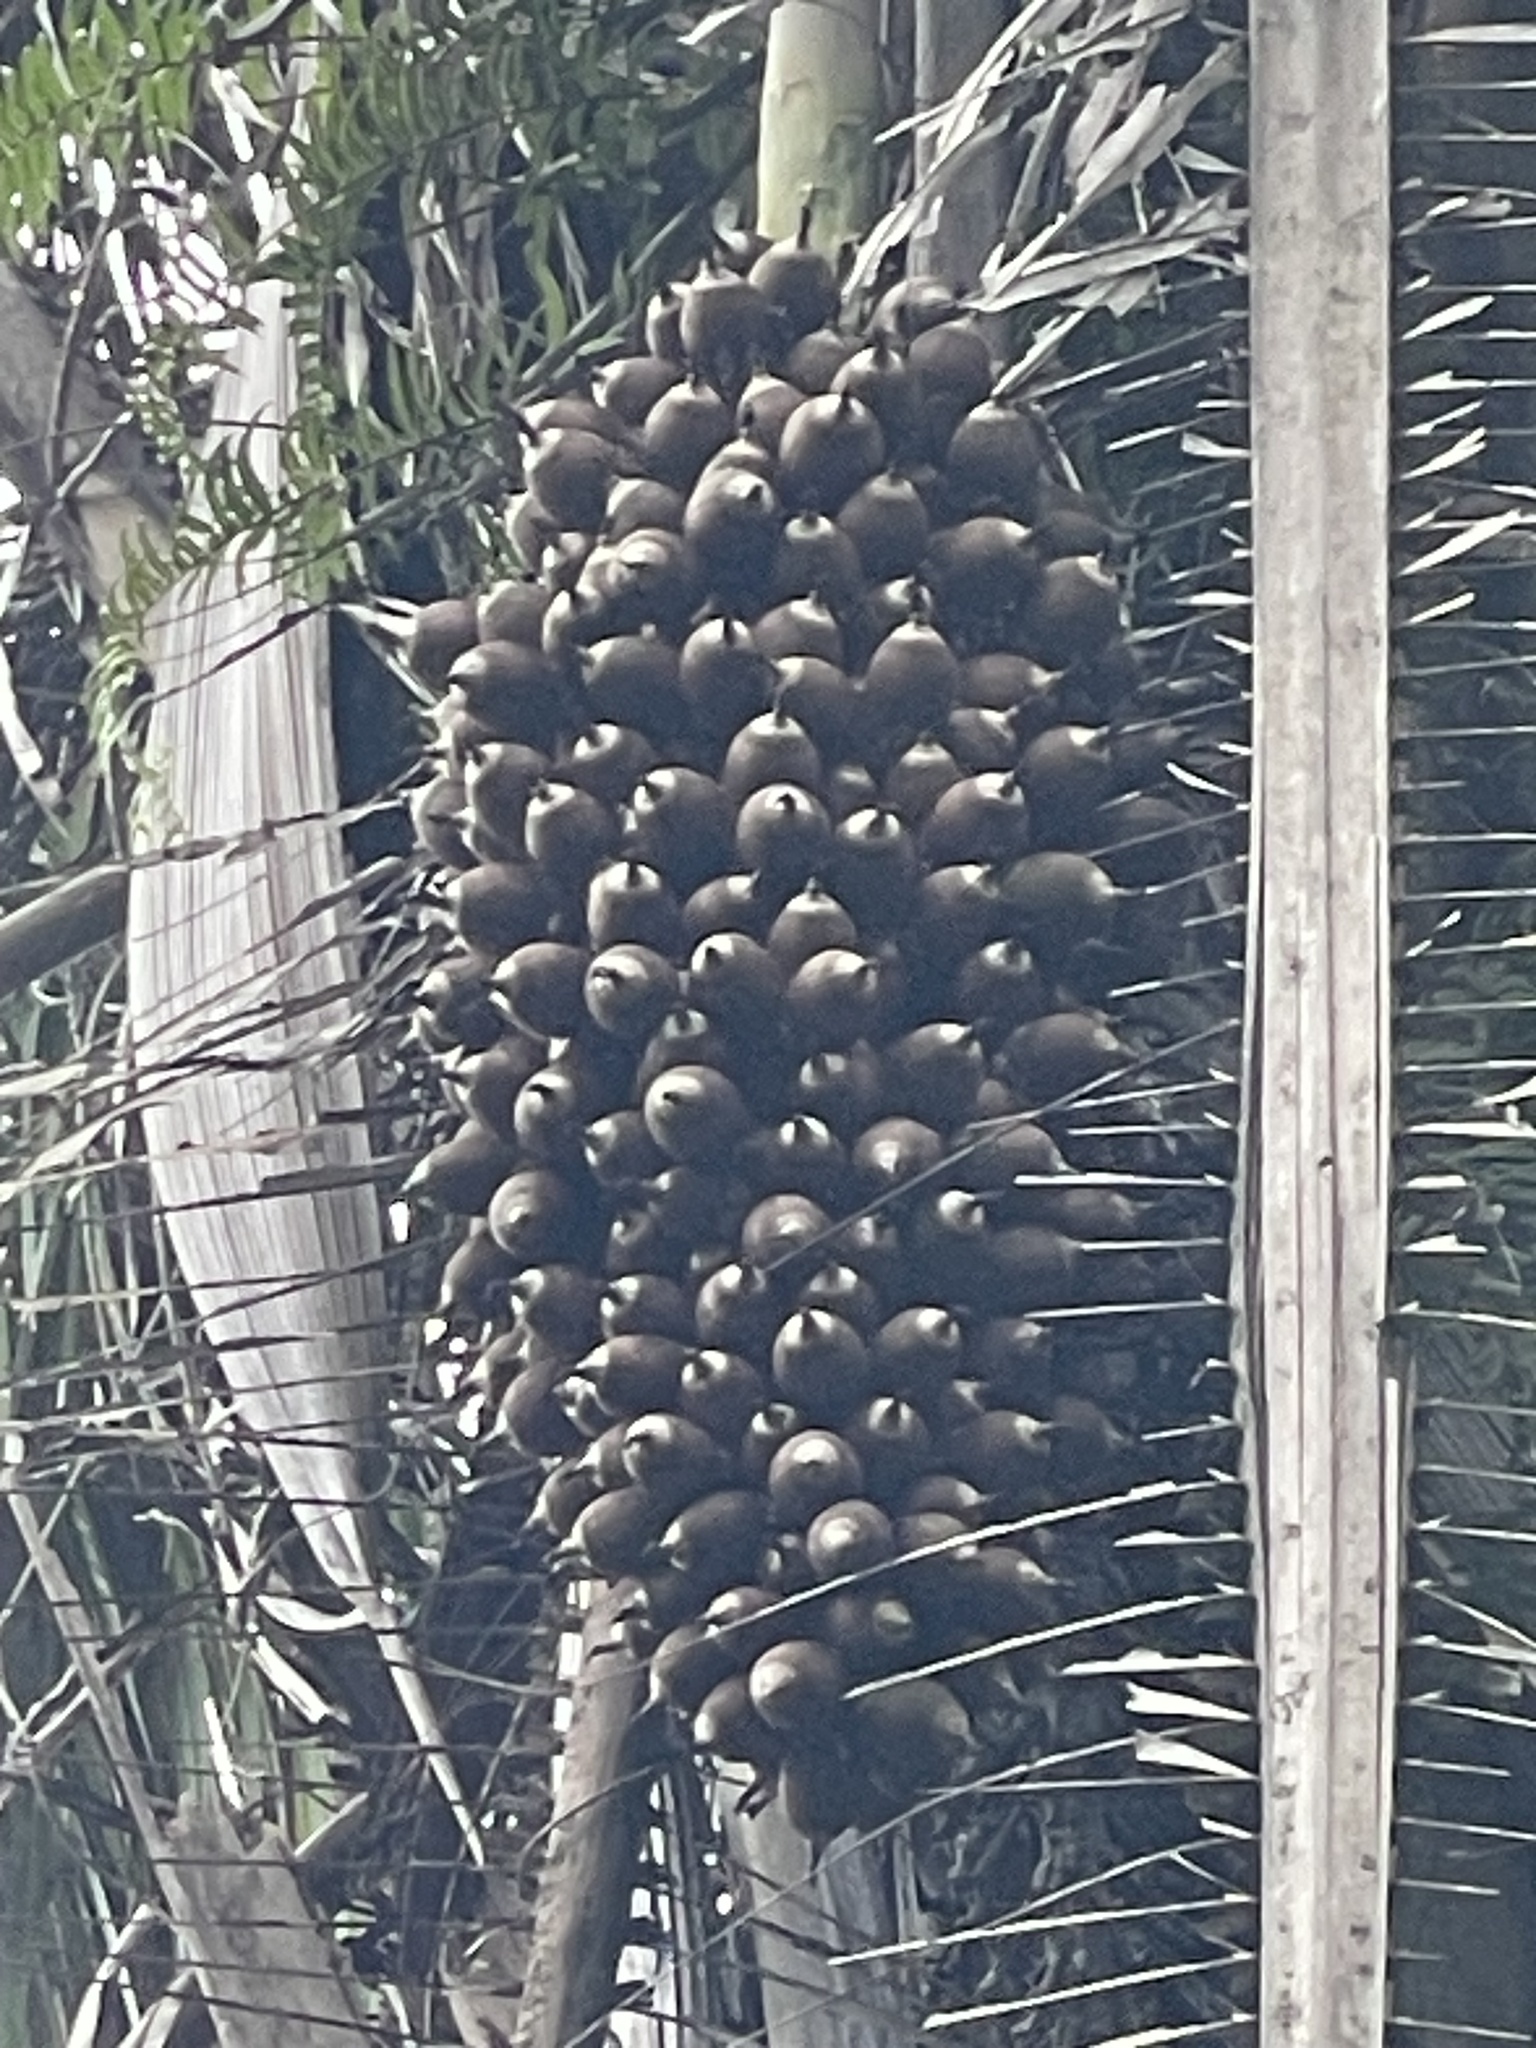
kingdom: Plantae
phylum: Tracheophyta
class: Liliopsida
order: Arecales
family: Arecaceae
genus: Attalea
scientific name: Attalea cohune
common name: Cohune palm
